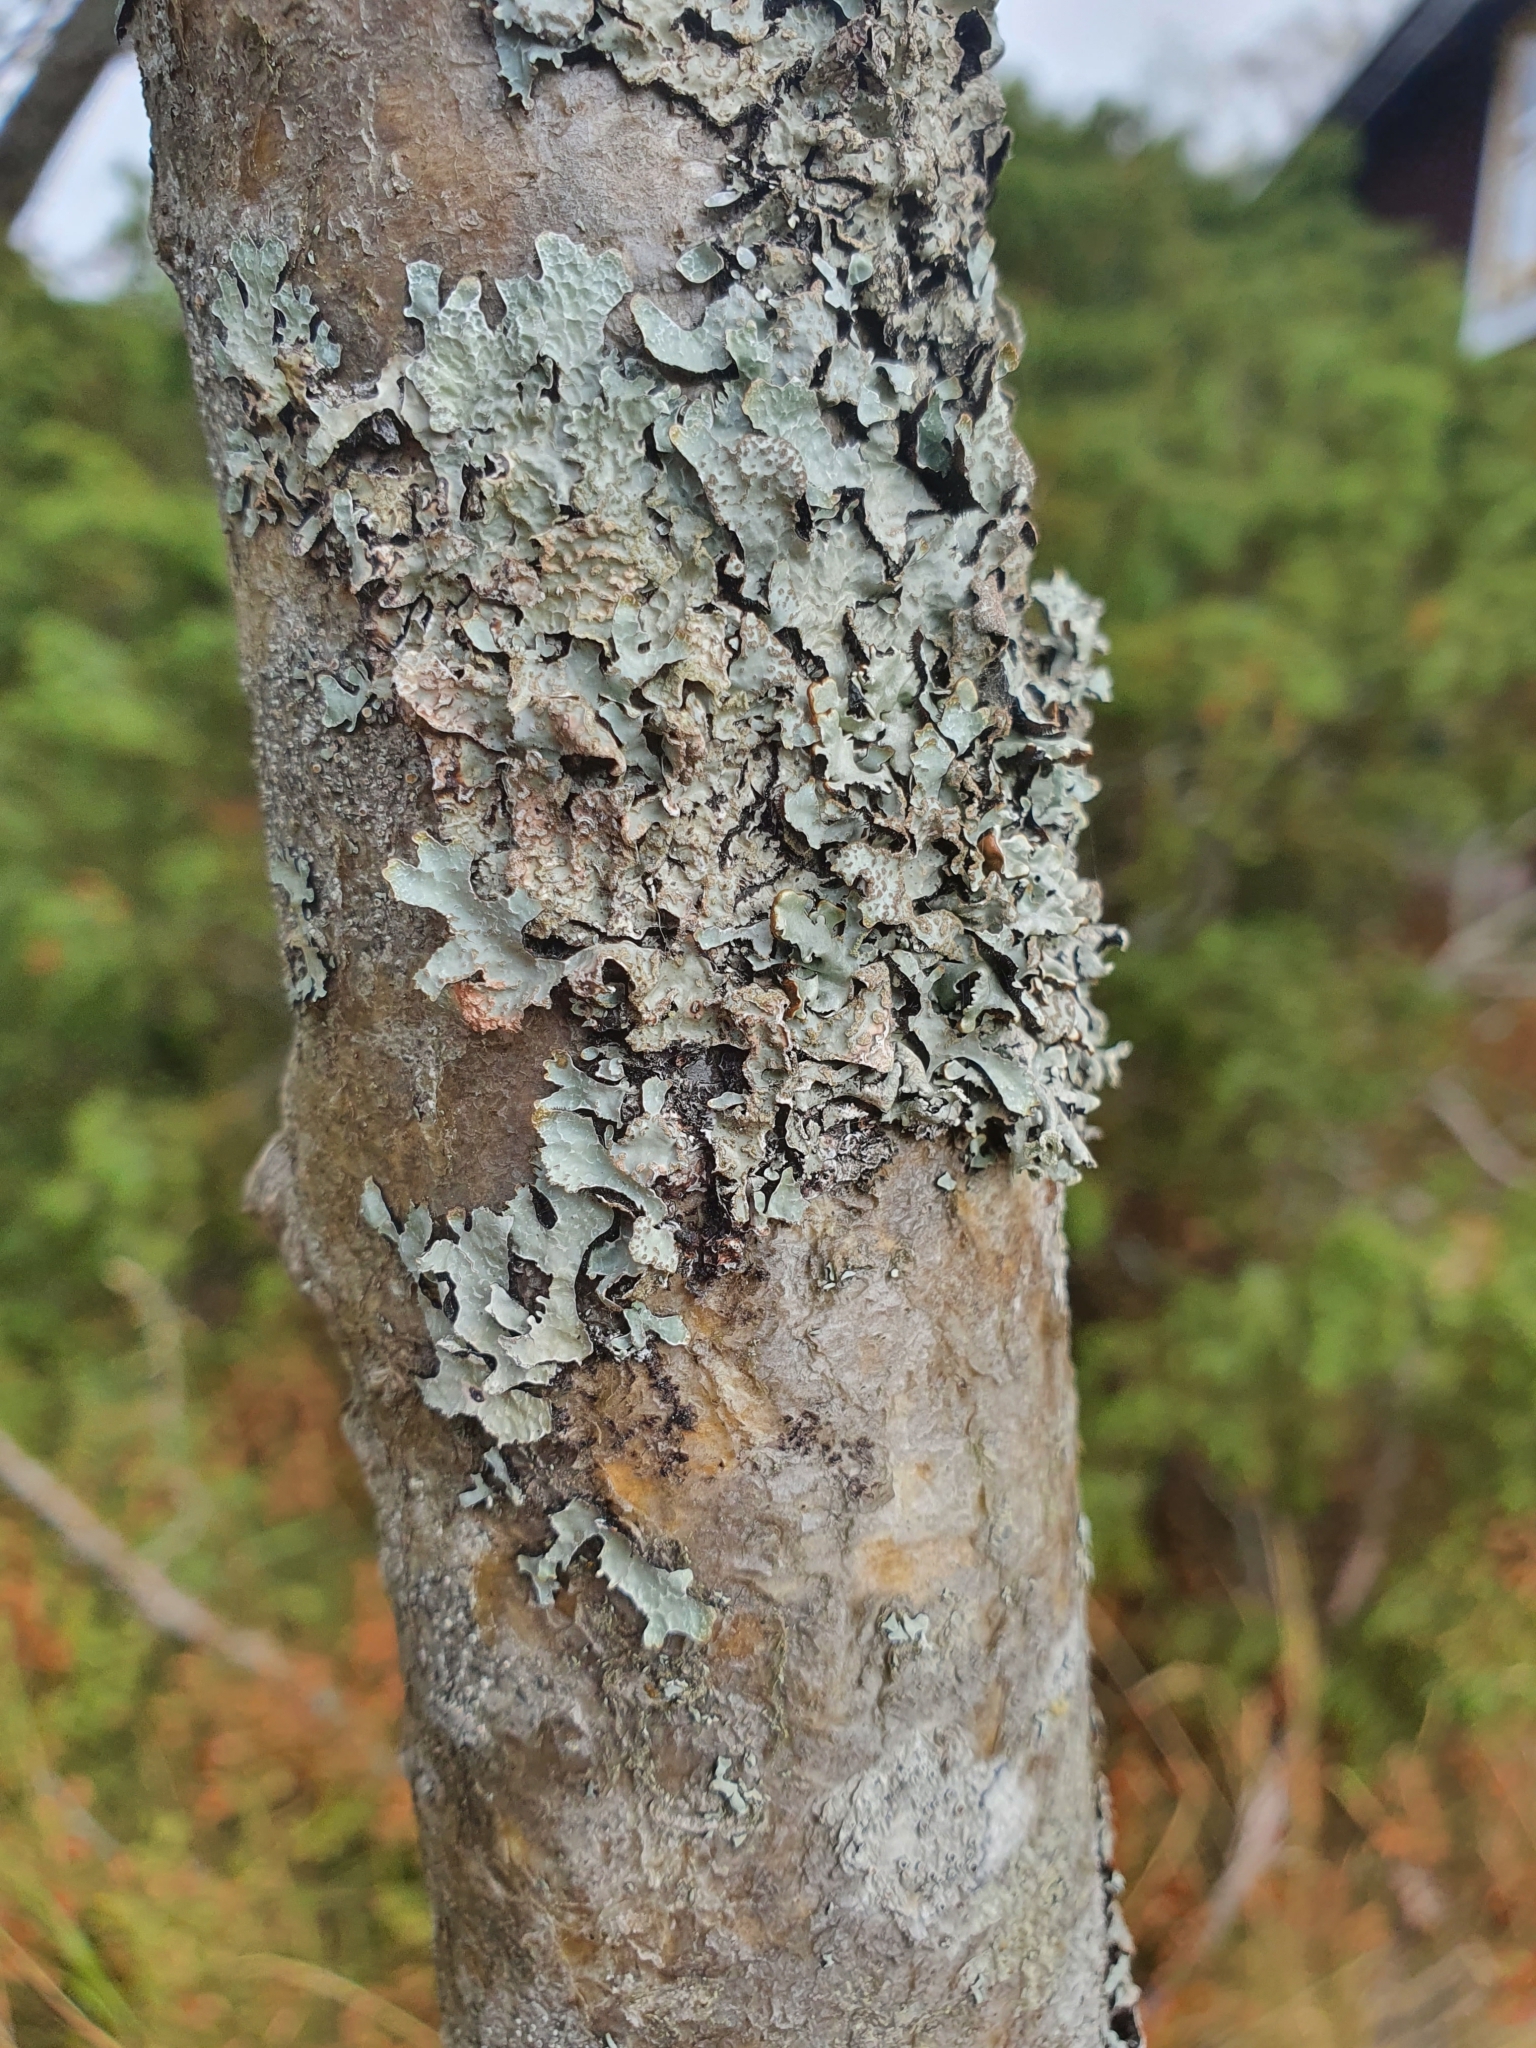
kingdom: Fungi
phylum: Ascomycota
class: Lecanoromycetes
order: Lecanorales
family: Parmeliaceae
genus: Parmelia
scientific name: Parmelia sulcata
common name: Netted shield lichen
